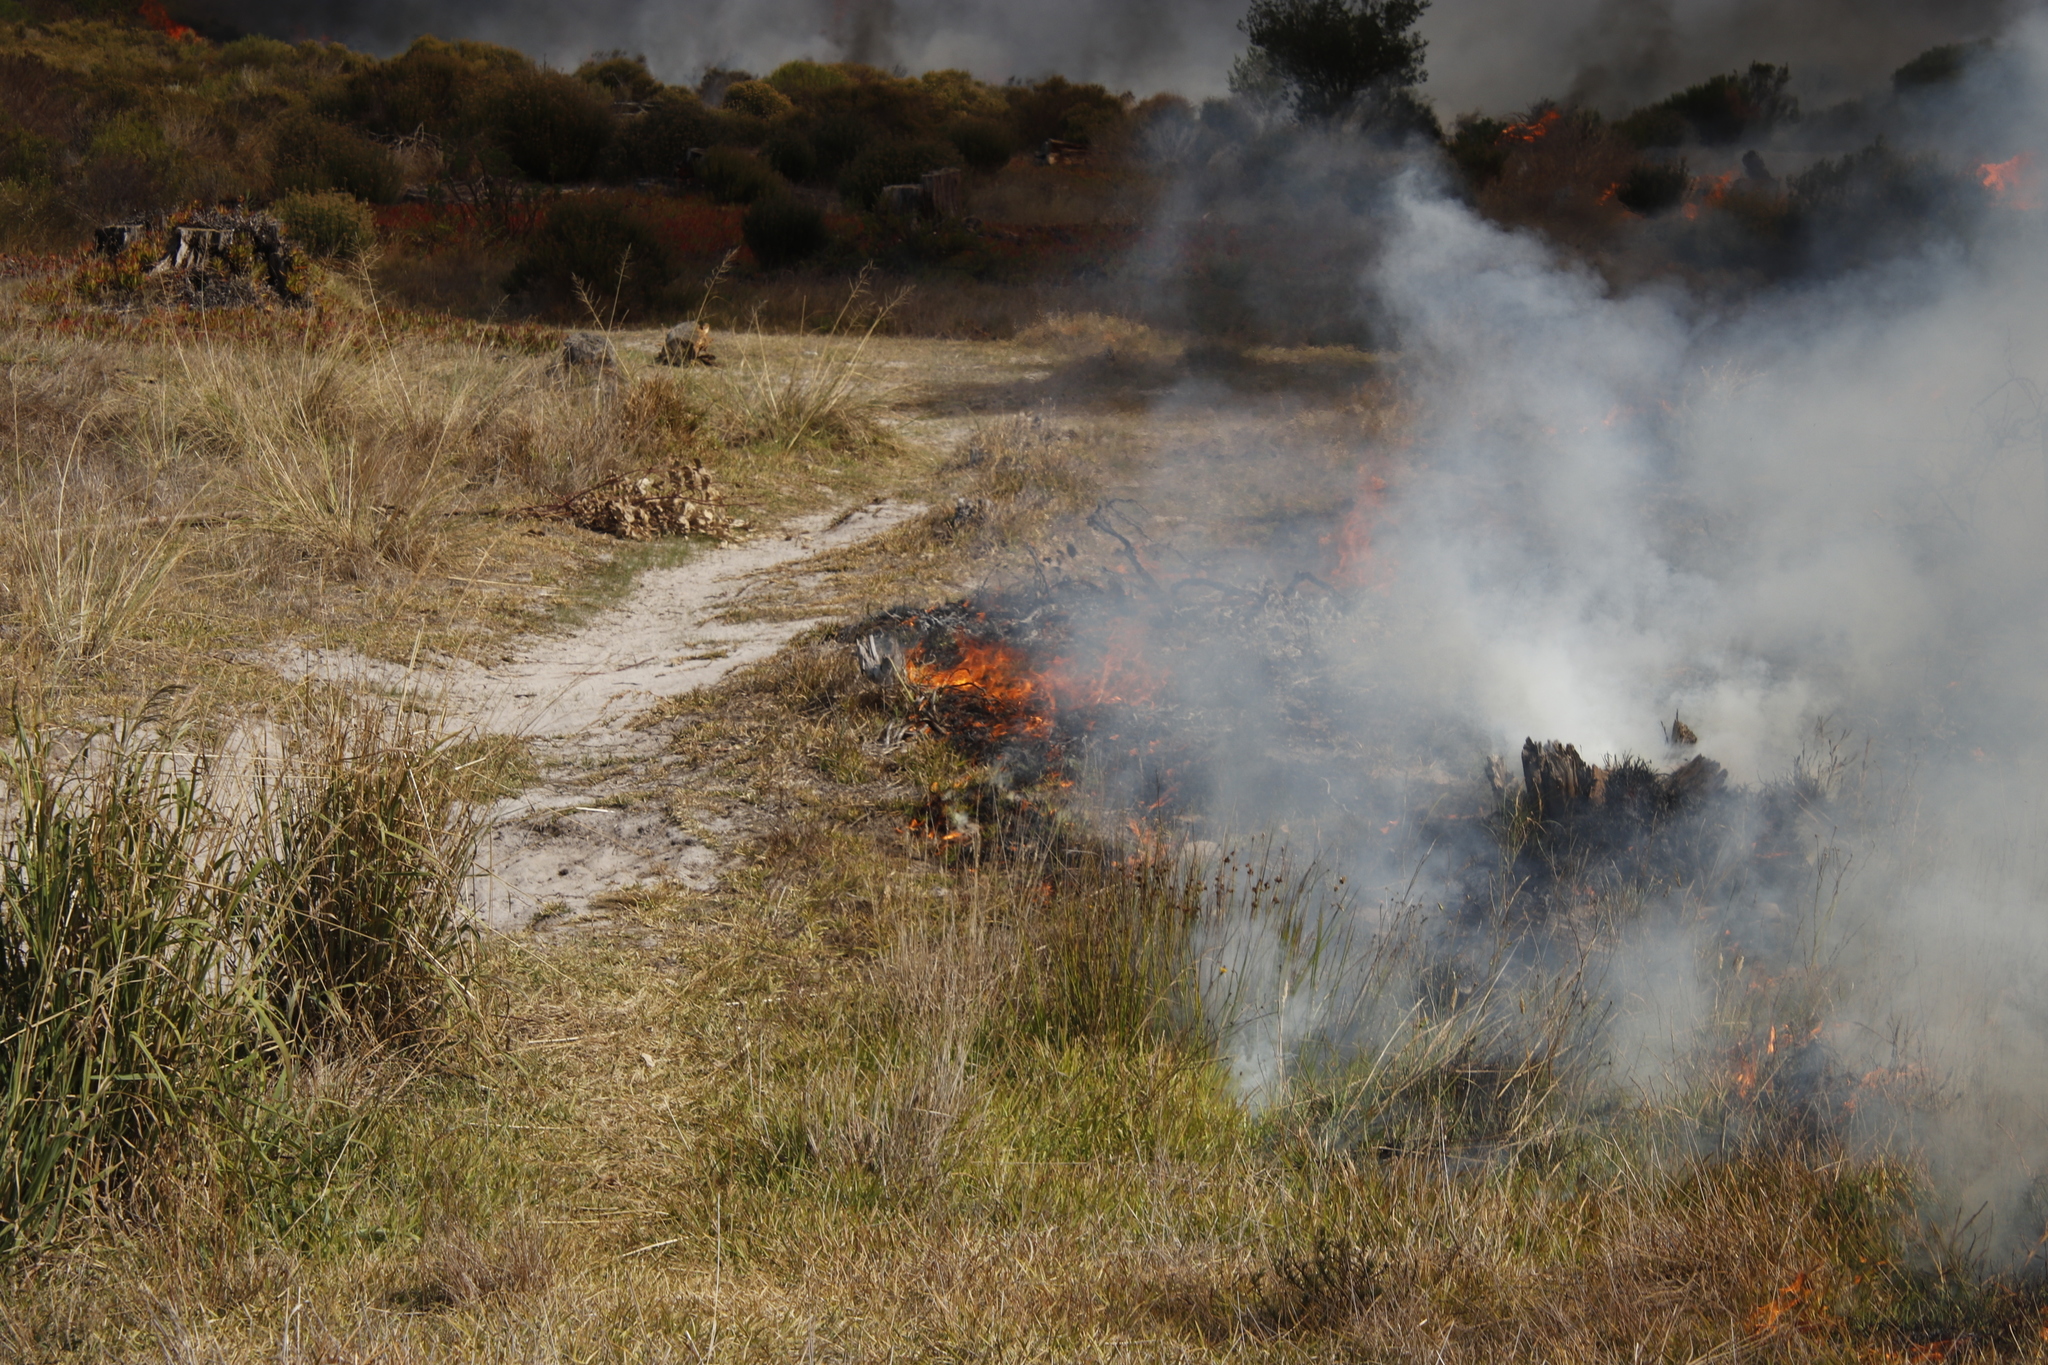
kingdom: Plantae
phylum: Tracheophyta
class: Liliopsida
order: Poales
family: Cyperaceae
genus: Ficinia
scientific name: Ficinia nodosa
